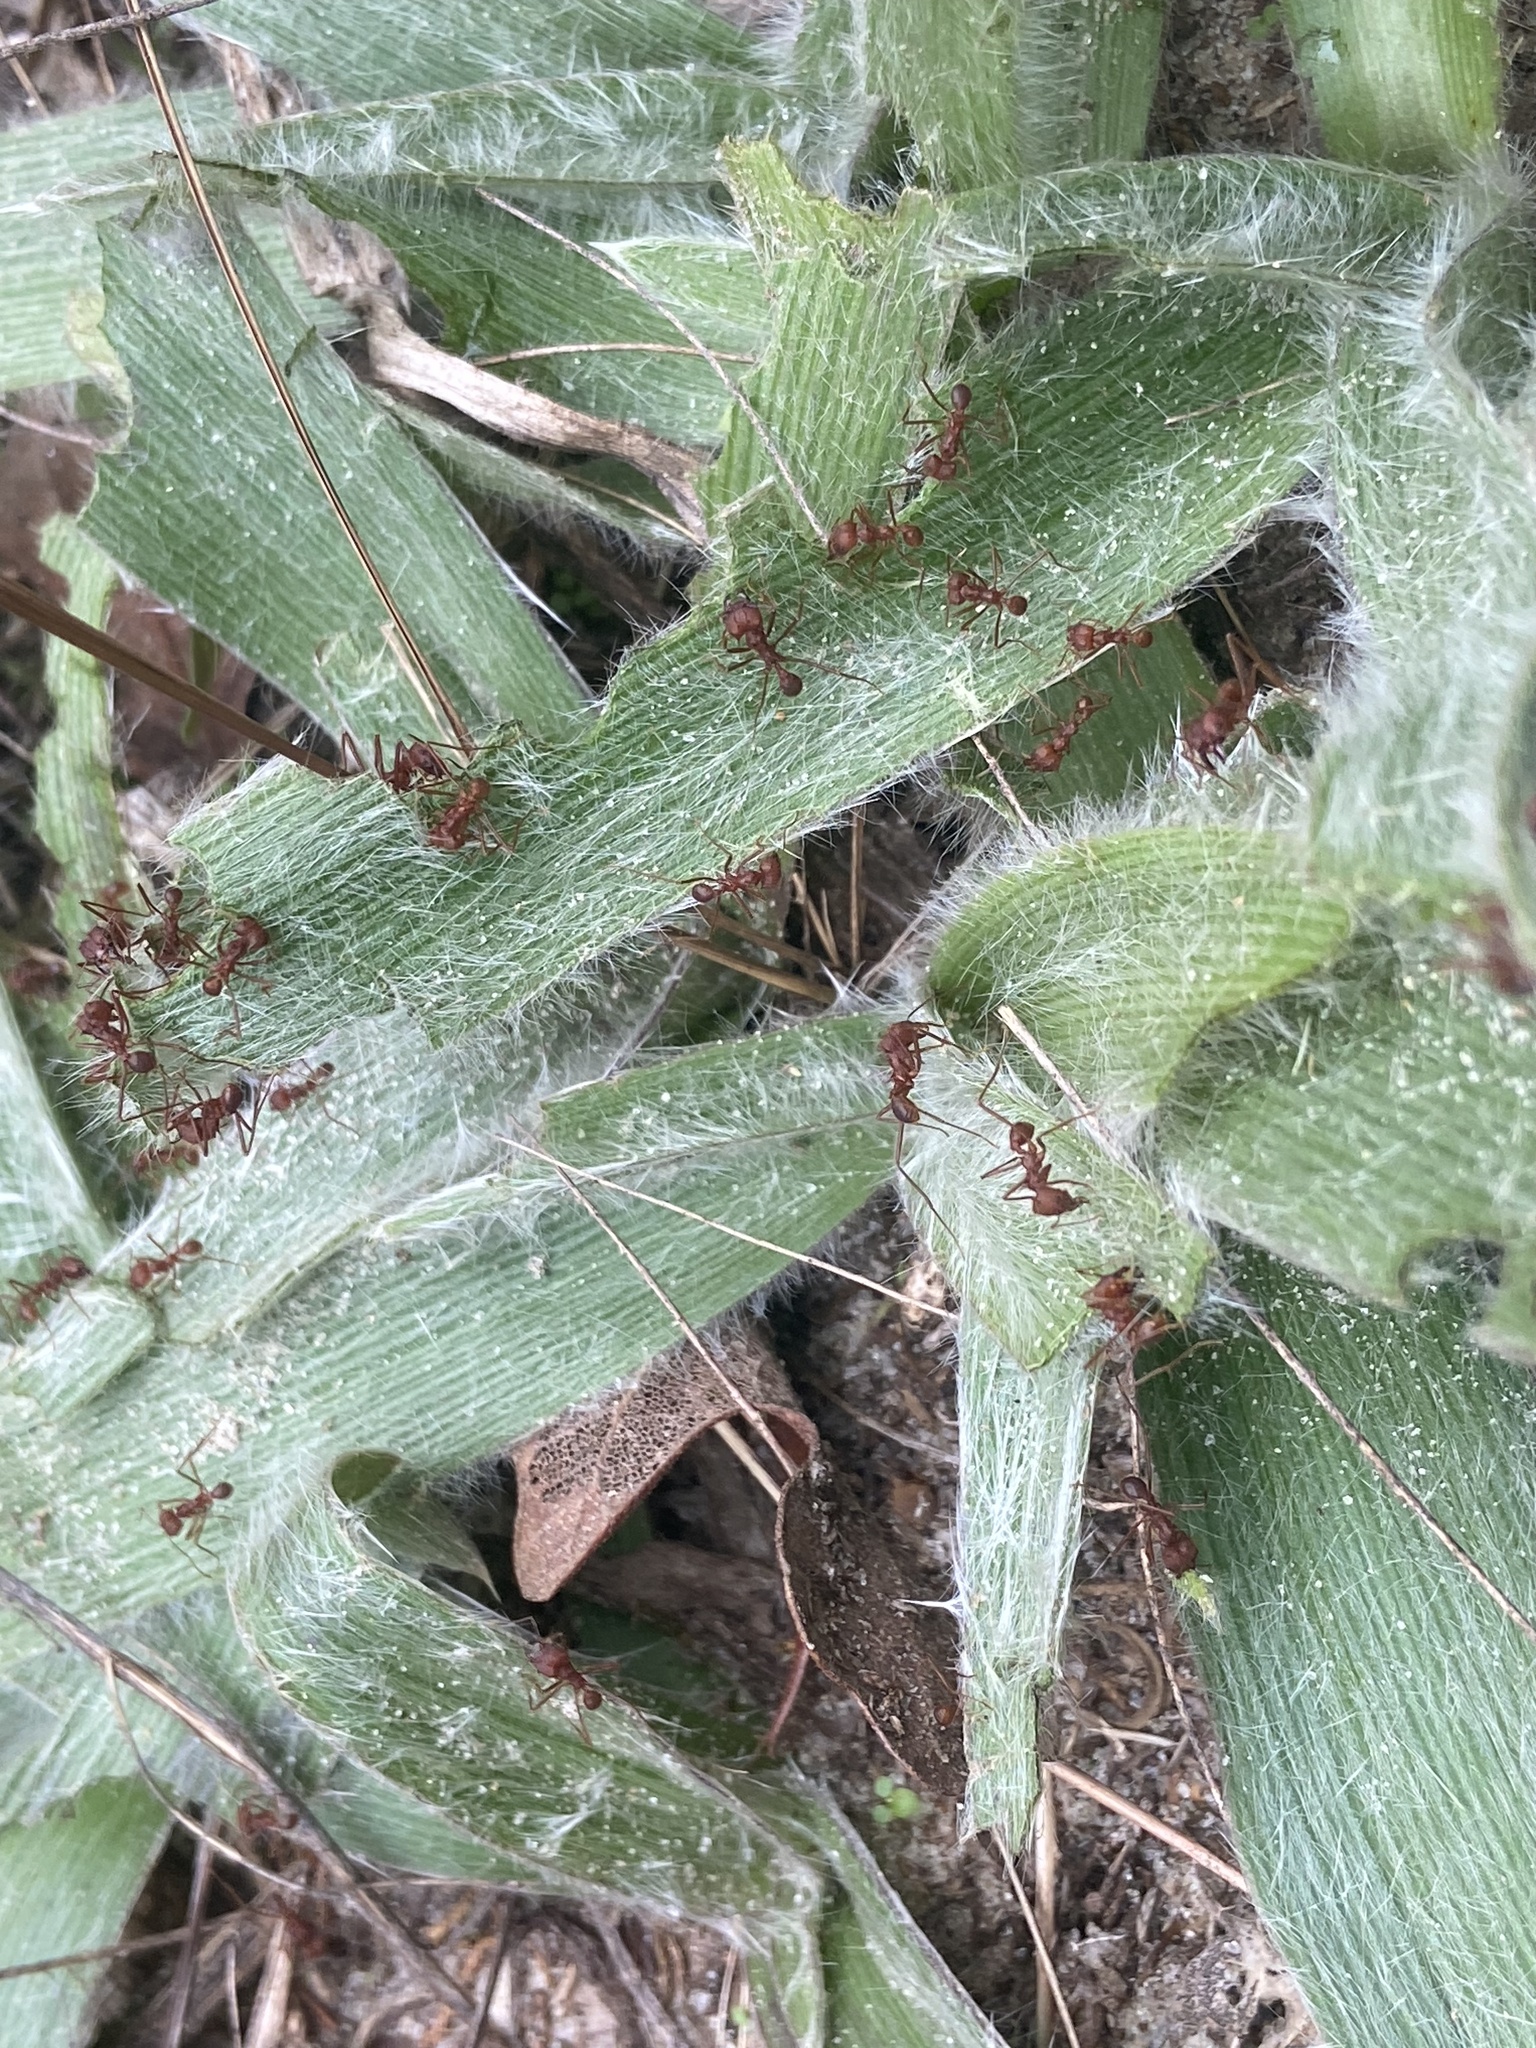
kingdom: Animalia
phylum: Arthropoda
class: Insecta
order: Hymenoptera
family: Formicidae
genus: Atta
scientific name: Atta texana
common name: Texas leafcutting ant
